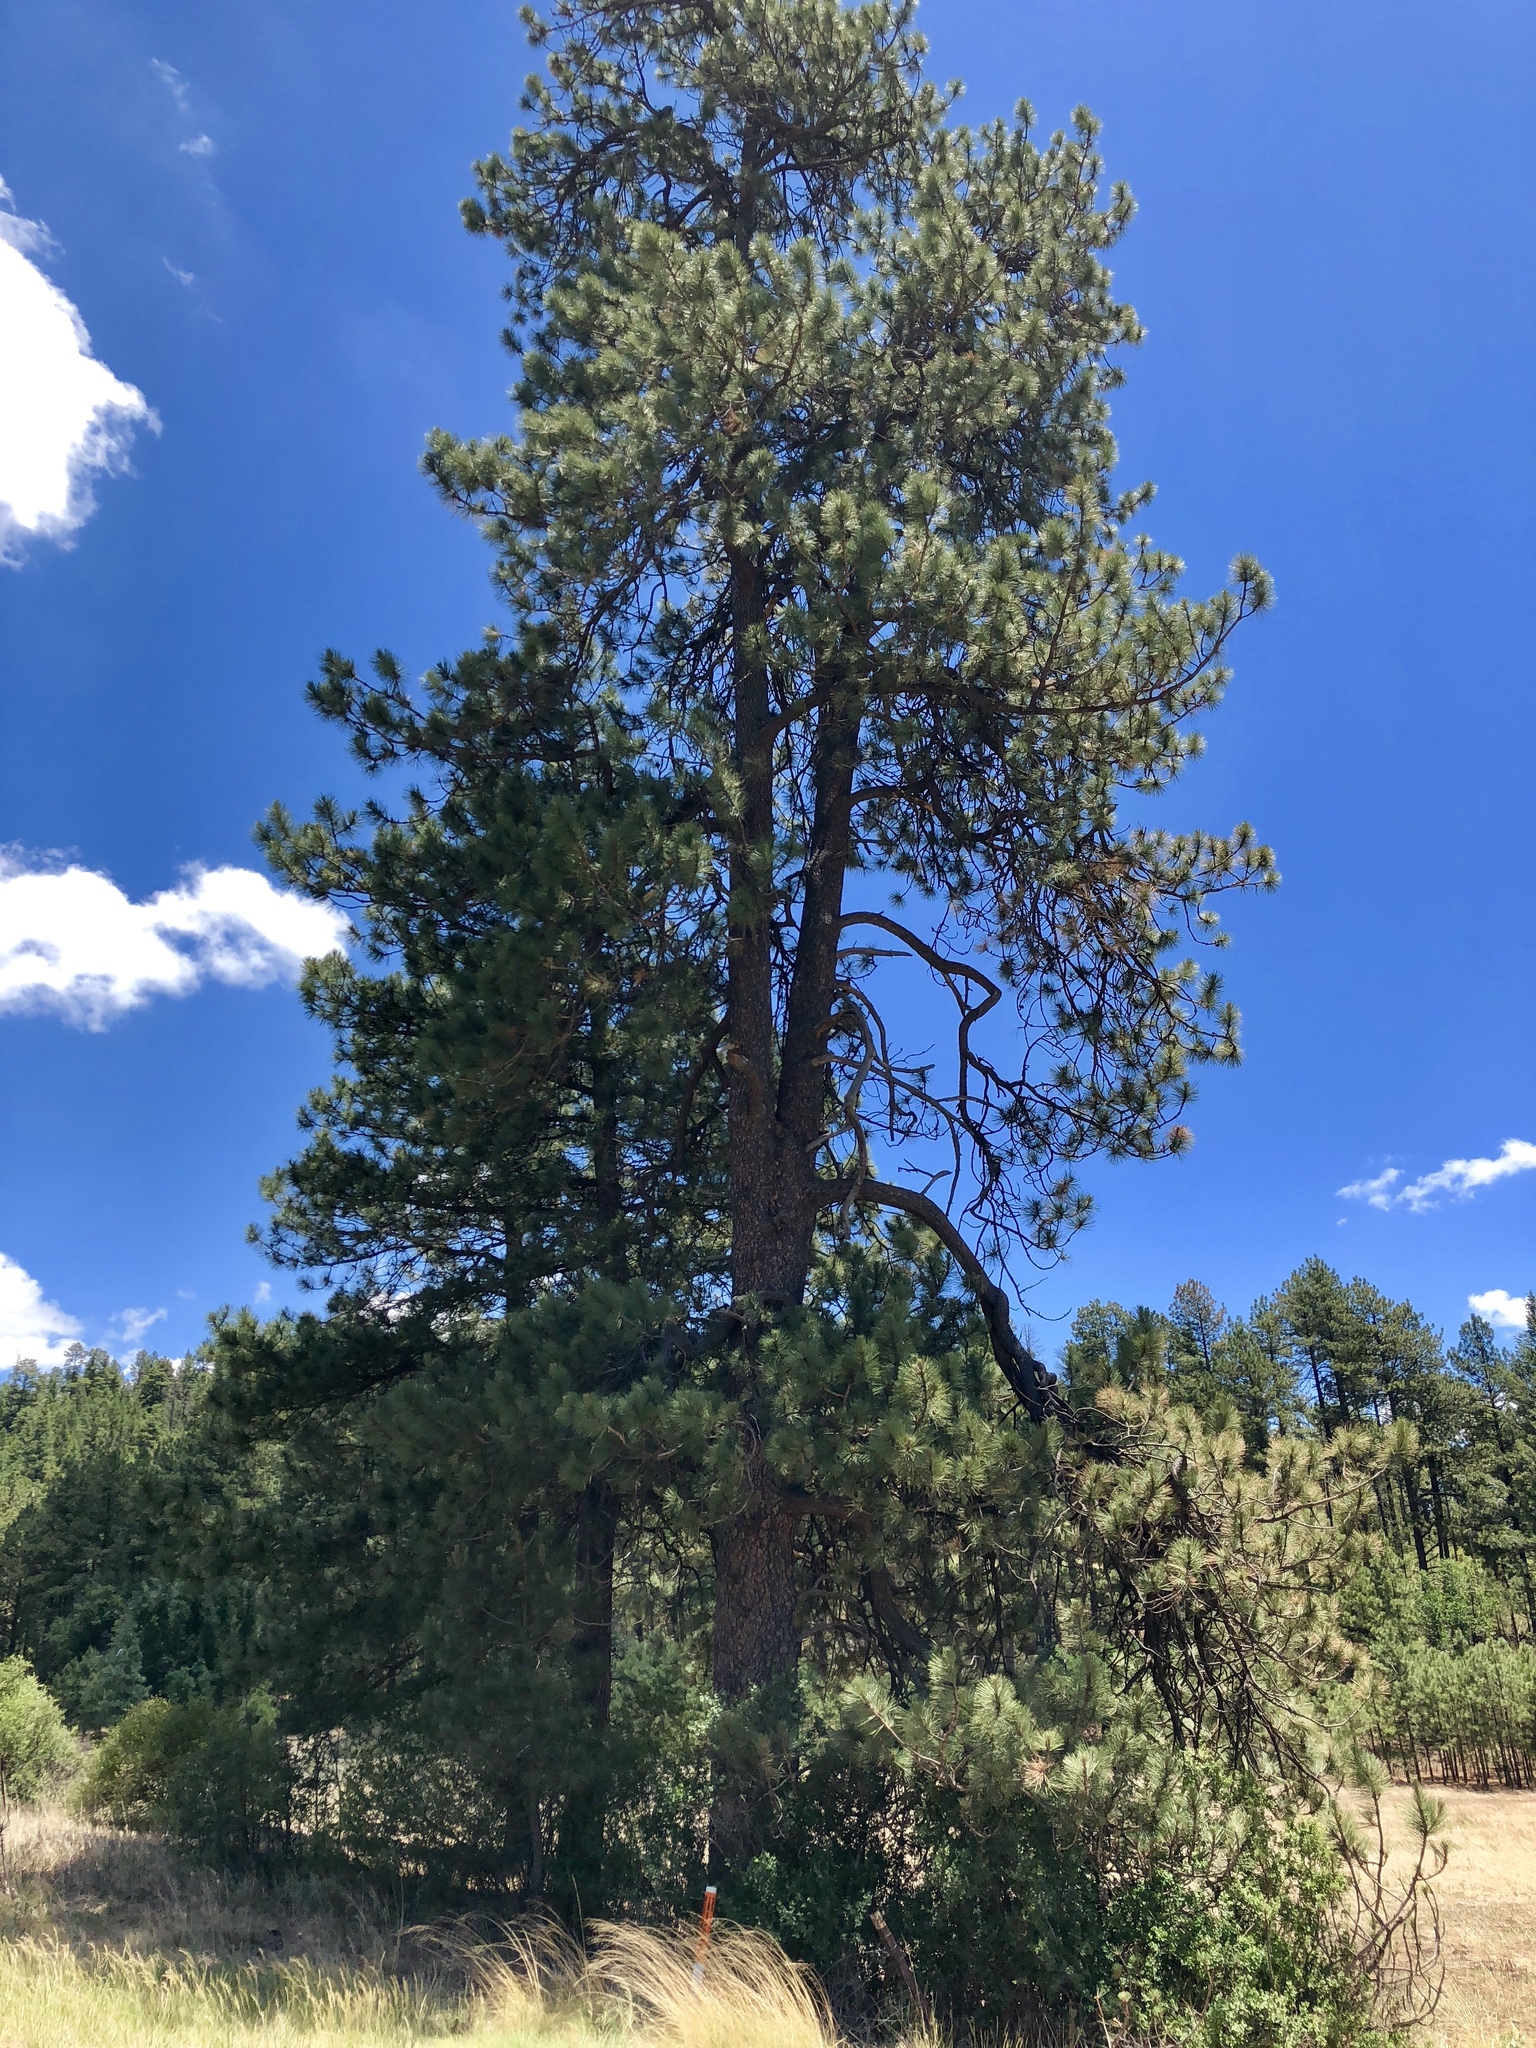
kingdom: Plantae
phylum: Tracheophyta
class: Pinopsida
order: Pinales
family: Pinaceae
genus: Pinus
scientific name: Pinus ponderosa
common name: Western yellow-pine
